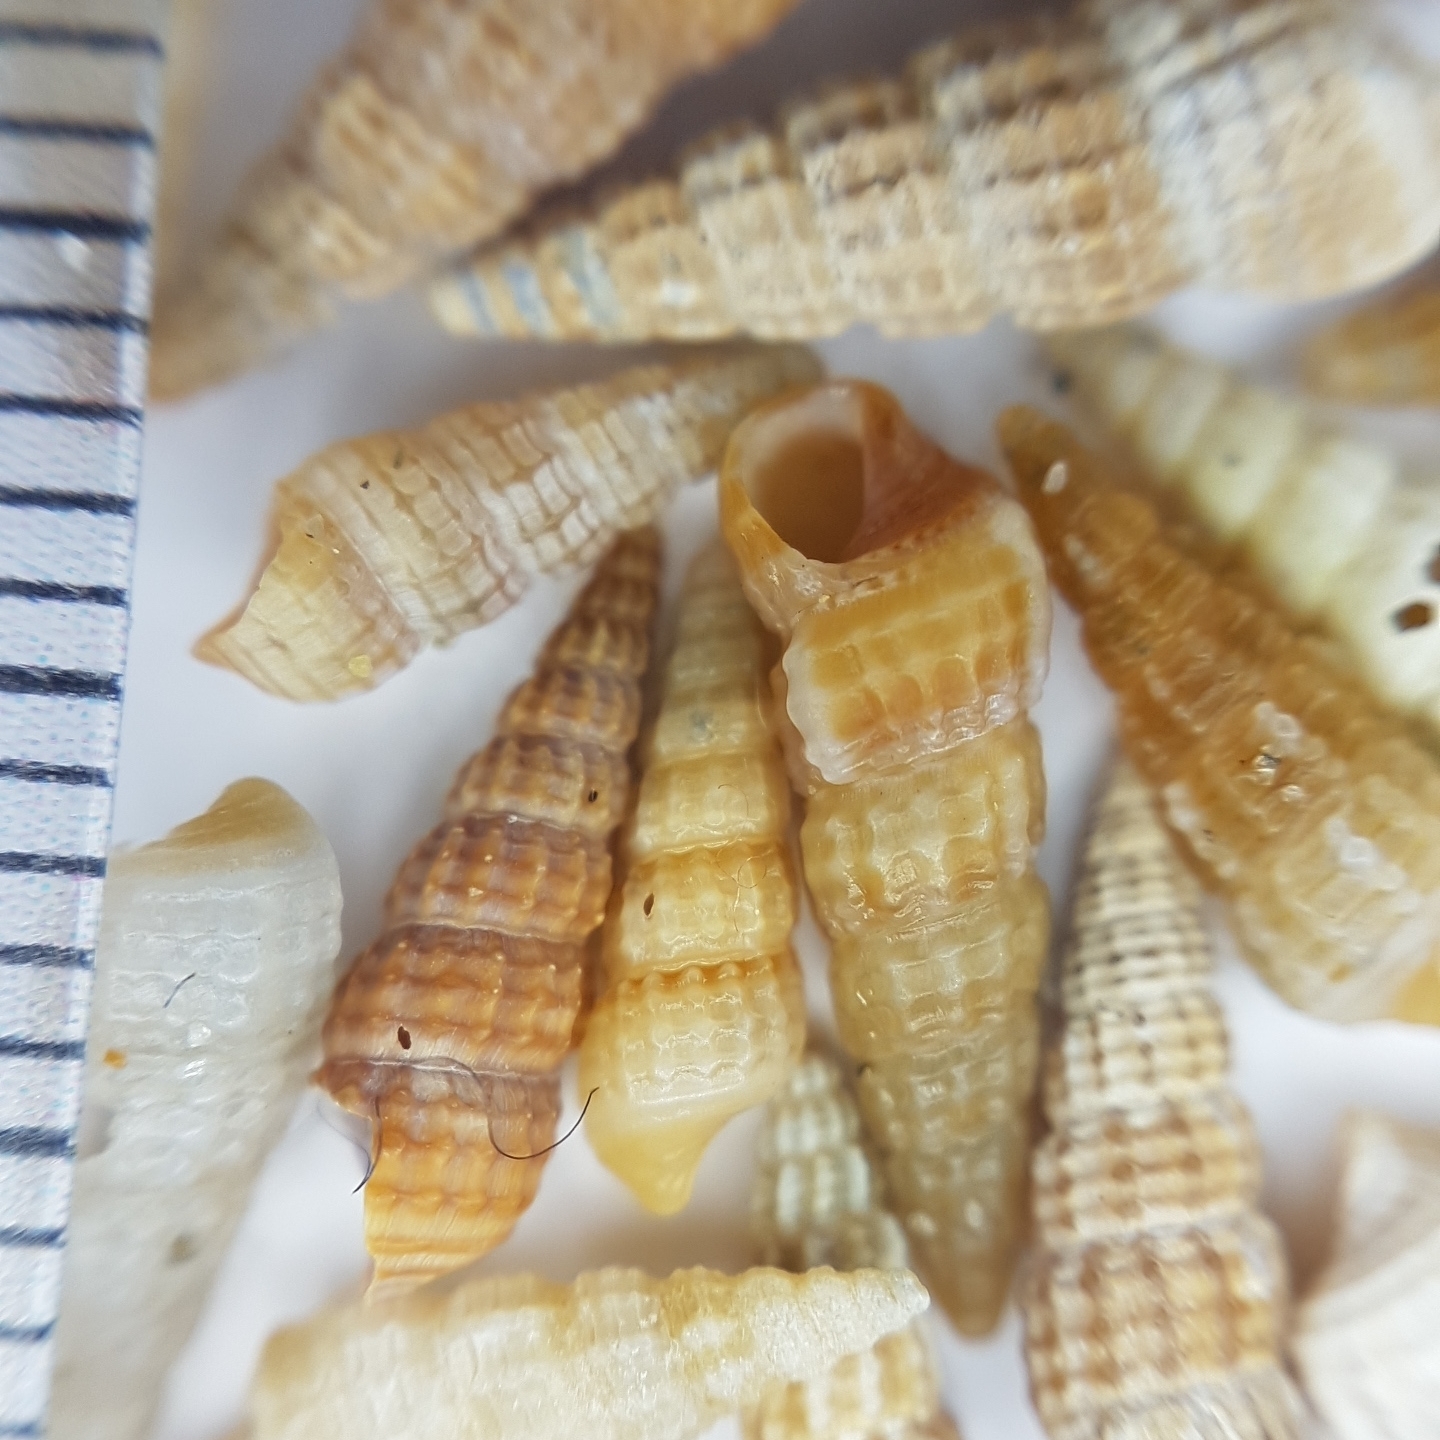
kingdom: Animalia
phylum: Mollusca
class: Gastropoda
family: Cerithiidae
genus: Bittium
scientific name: Bittium reticulatum
